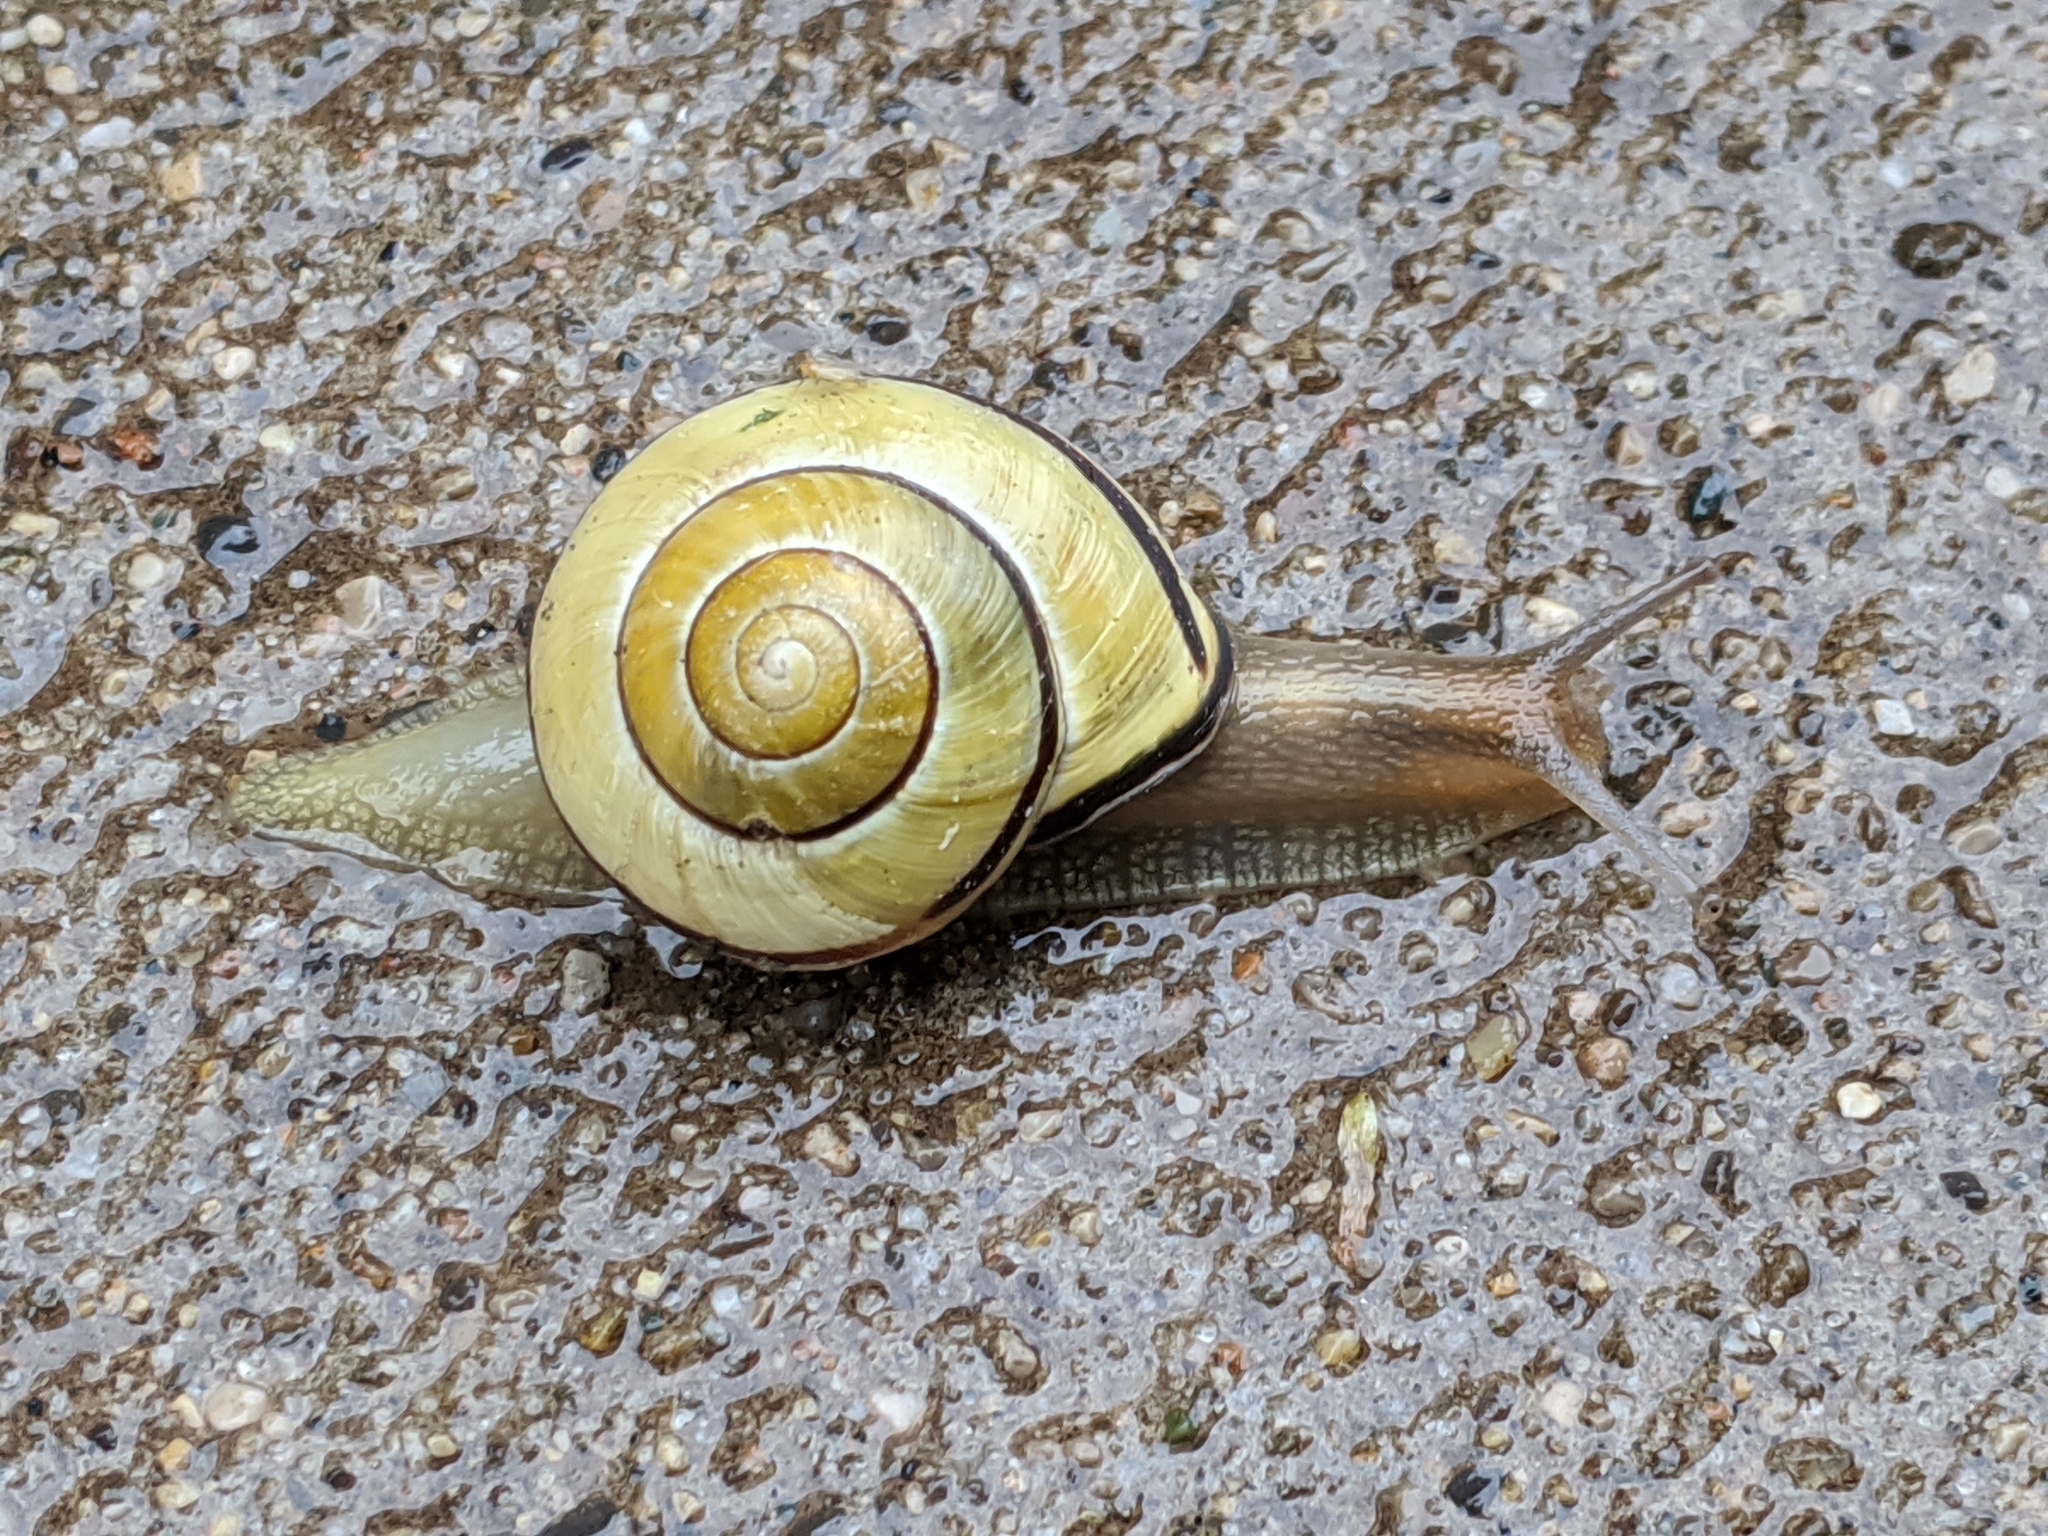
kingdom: Animalia
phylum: Mollusca
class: Gastropoda
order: Stylommatophora
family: Helicidae
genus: Cepaea
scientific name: Cepaea nemoralis
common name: Grovesnail
